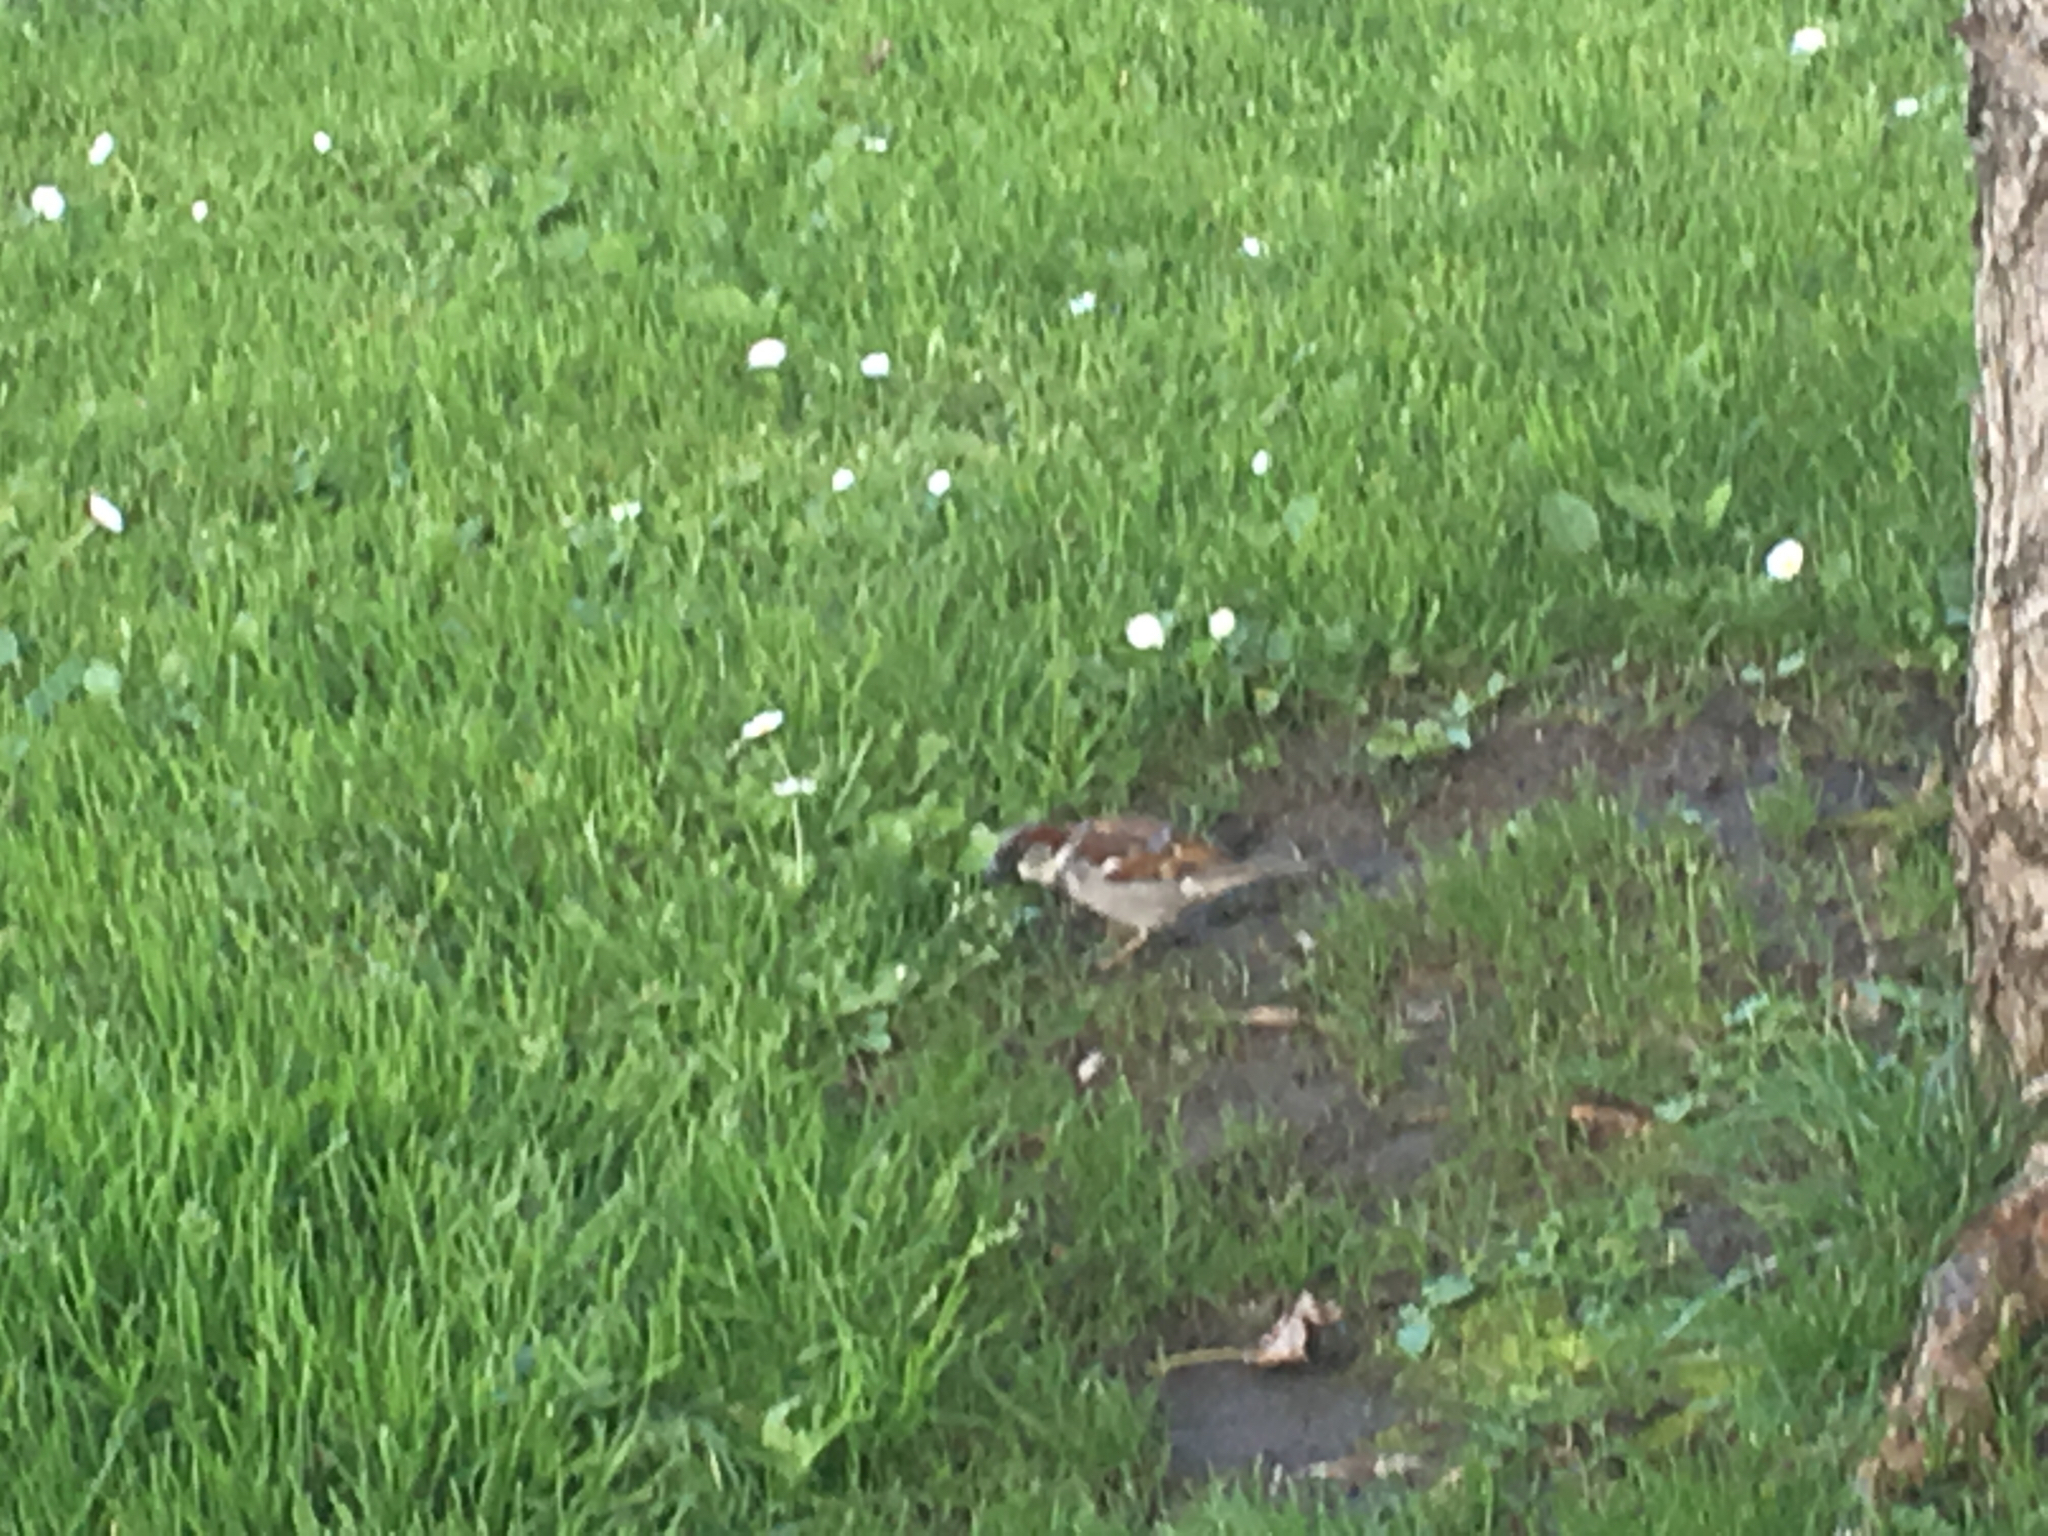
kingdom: Animalia
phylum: Chordata
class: Aves
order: Passeriformes
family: Passeridae
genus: Passer
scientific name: Passer domesticus
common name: House sparrow
